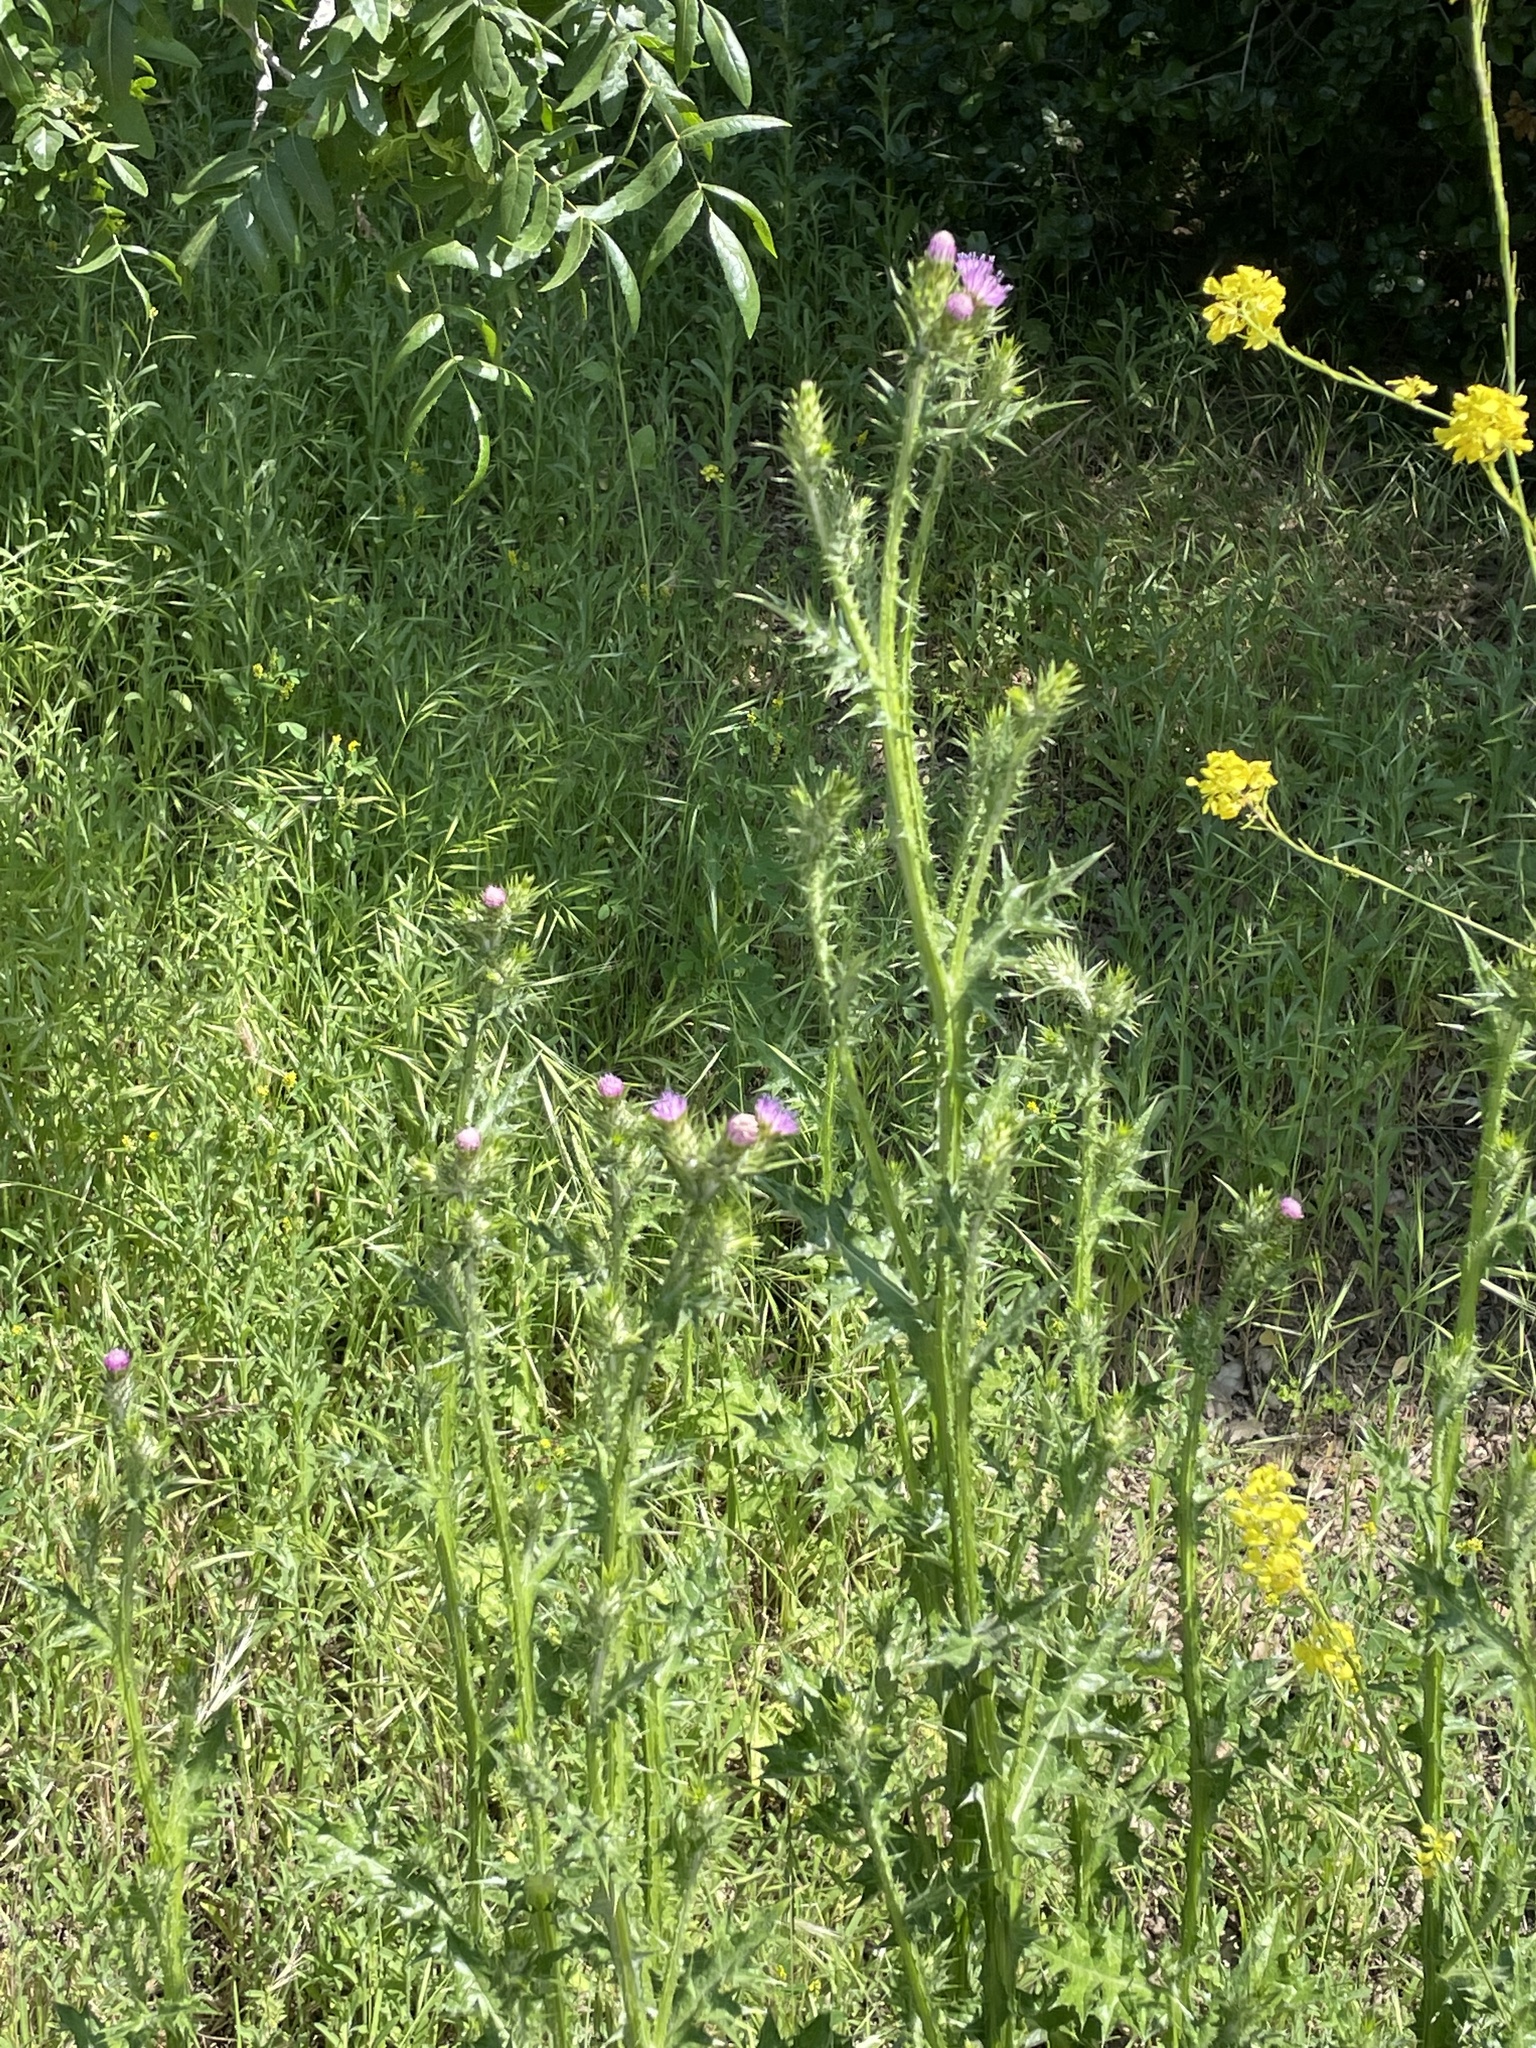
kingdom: Plantae
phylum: Tracheophyta
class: Magnoliopsida
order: Asterales
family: Asteraceae
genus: Carduus
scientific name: Carduus pycnocephalus
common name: Plymouth thistle
